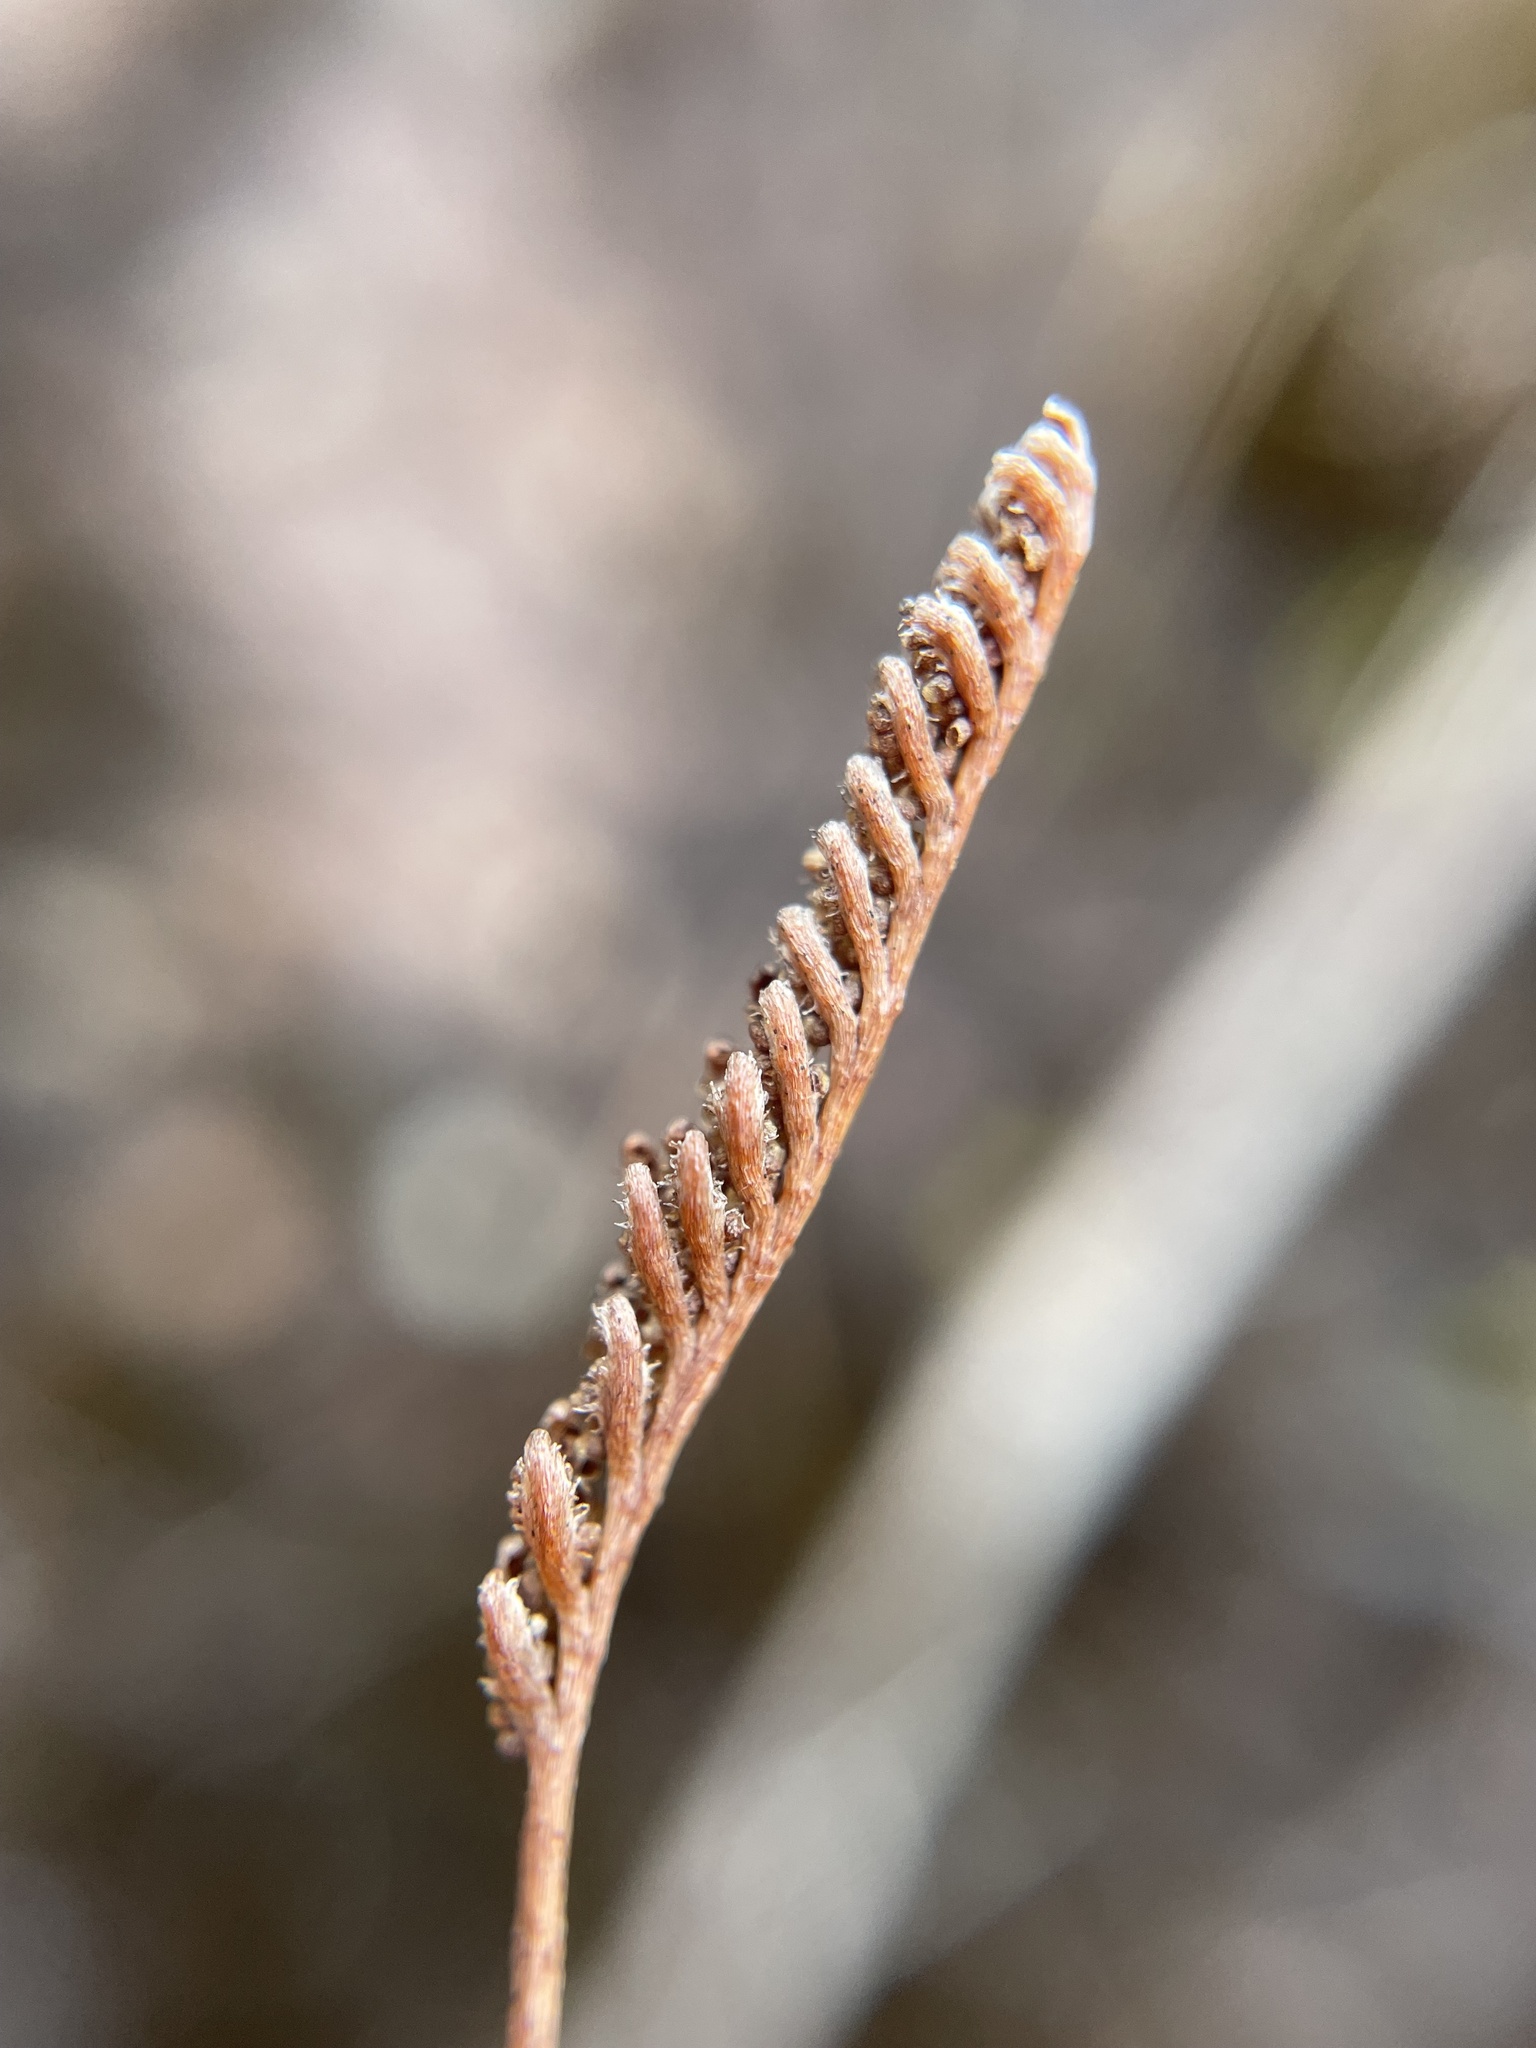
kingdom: Plantae
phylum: Tracheophyta
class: Polypodiopsida
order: Schizaeales
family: Schizaeaceae
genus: Microschizaea
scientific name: Microschizaea fistulosa
